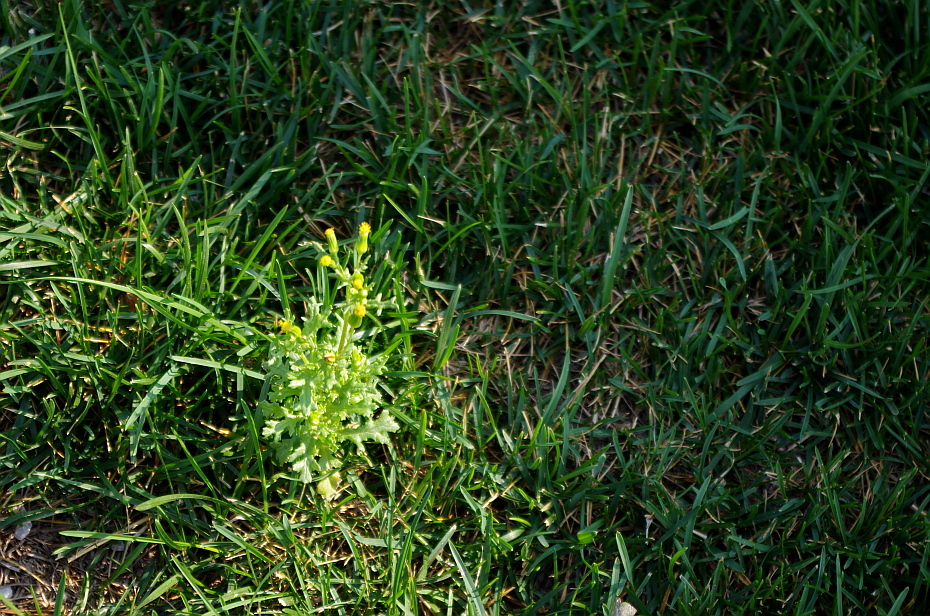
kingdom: Plantae
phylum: Tracheophyta
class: Magnoliopsida
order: Asterales
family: Asteraceae
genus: Senecio
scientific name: Senecio vulgaris
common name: Old-man-in-the-spring
